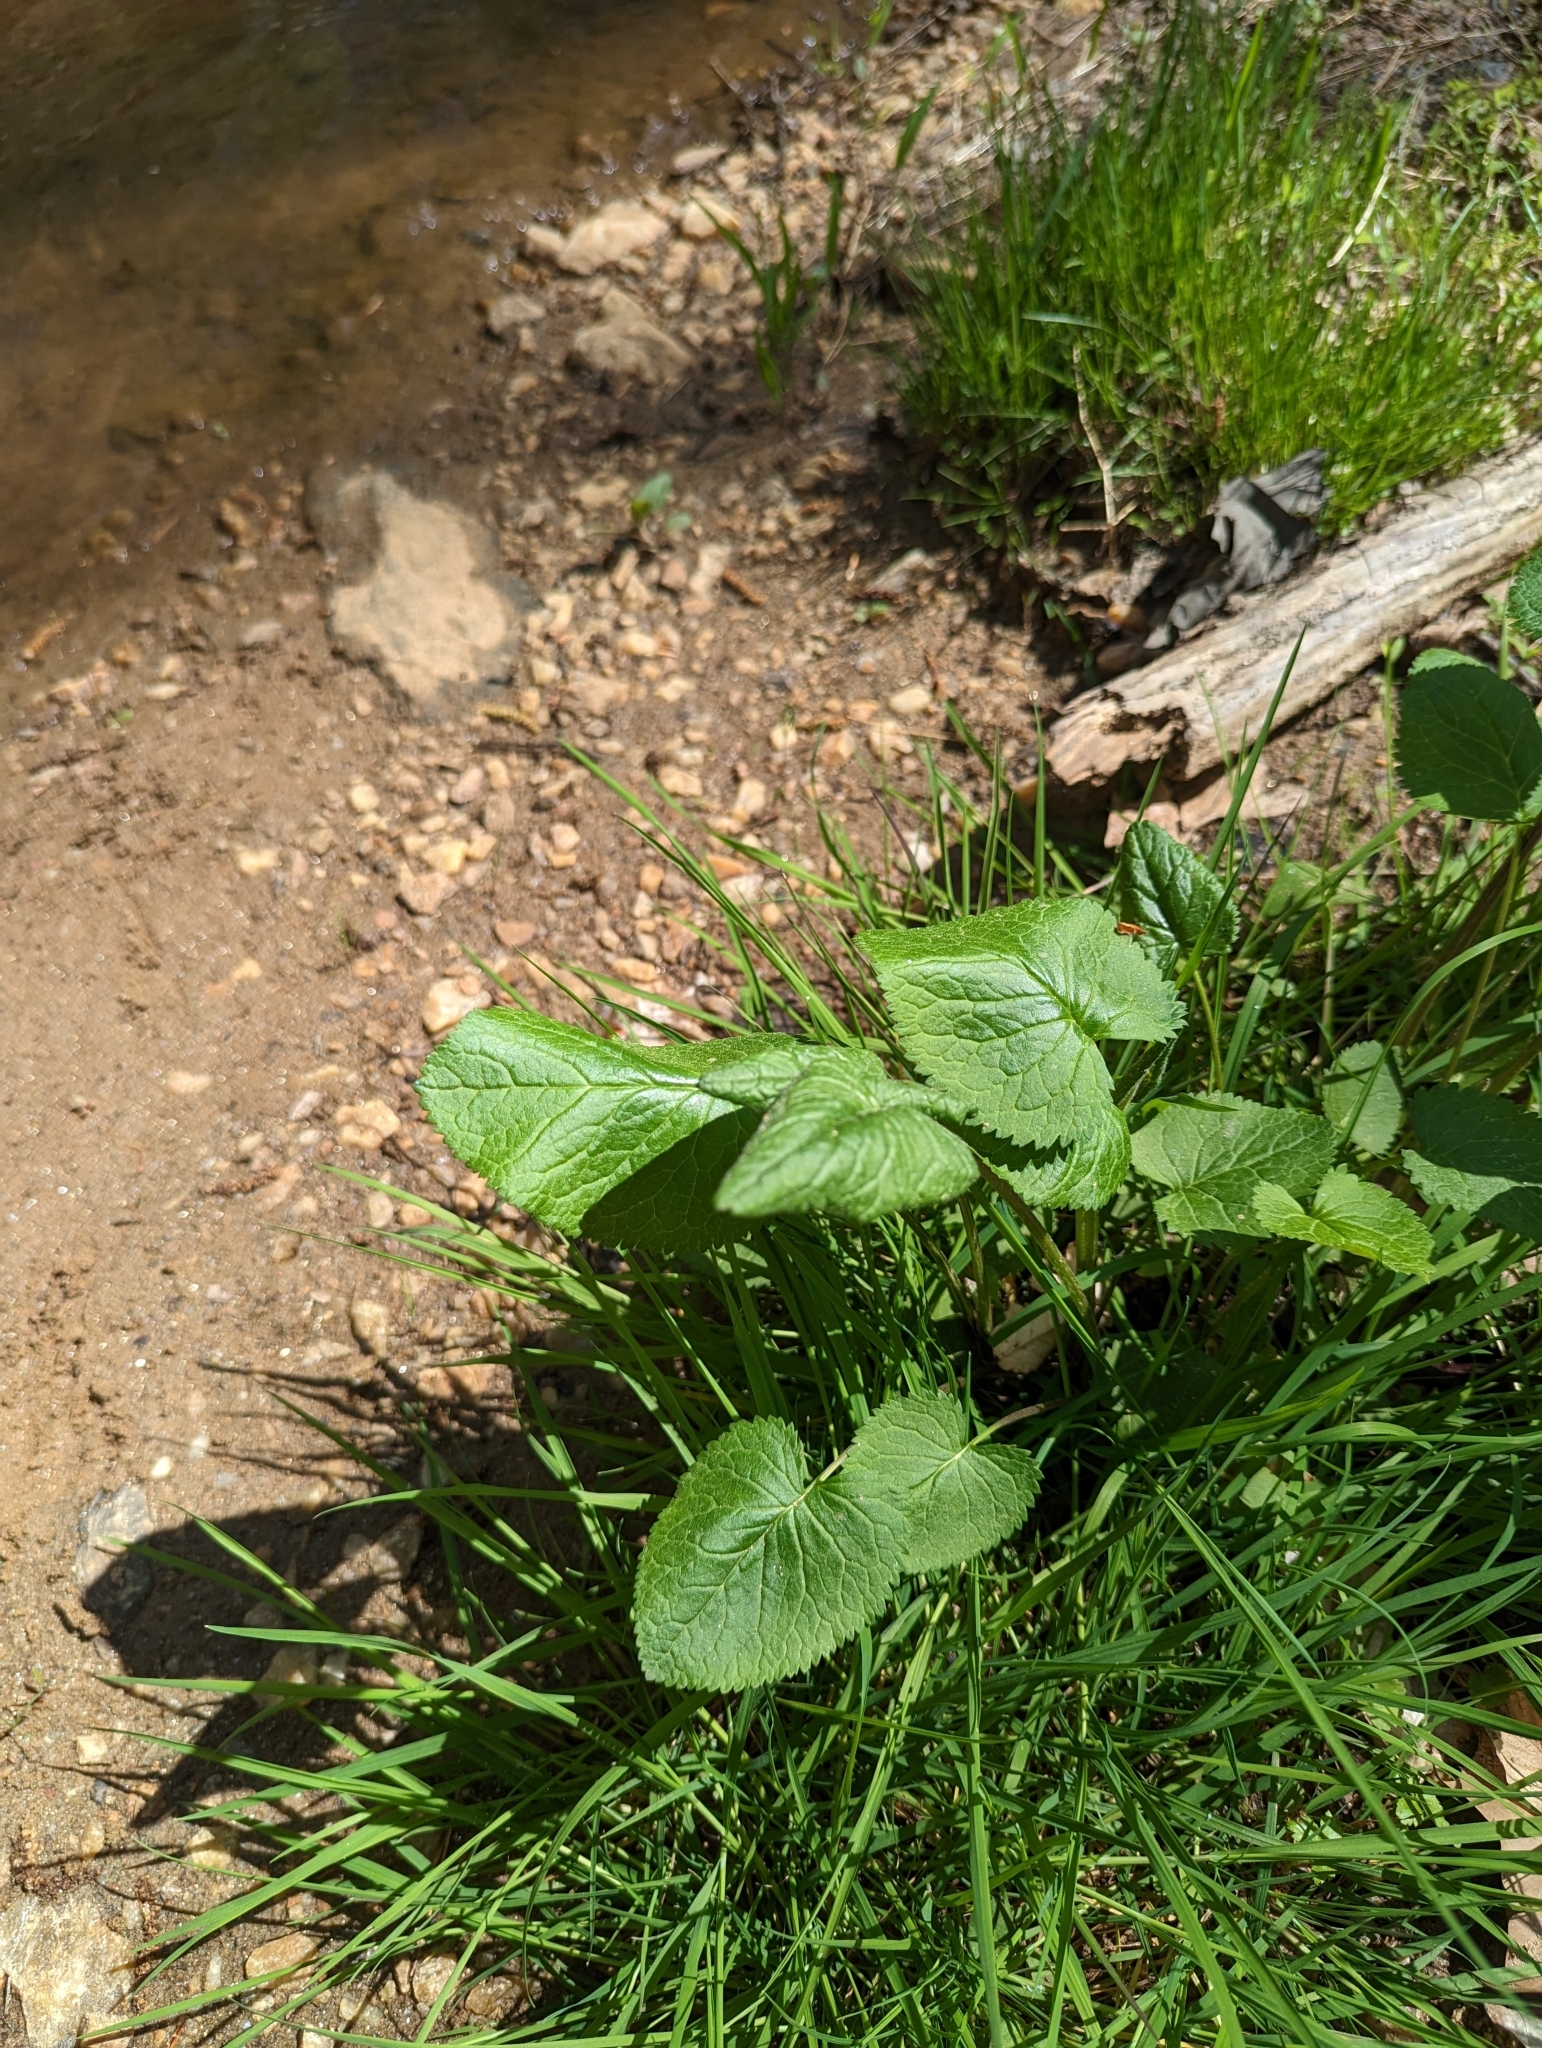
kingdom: Plantae
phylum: Tracheophyta
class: Magnoliopsida
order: Asterales
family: Asteraceae
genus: Packera
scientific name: Packera aurea
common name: Golden groundsel
